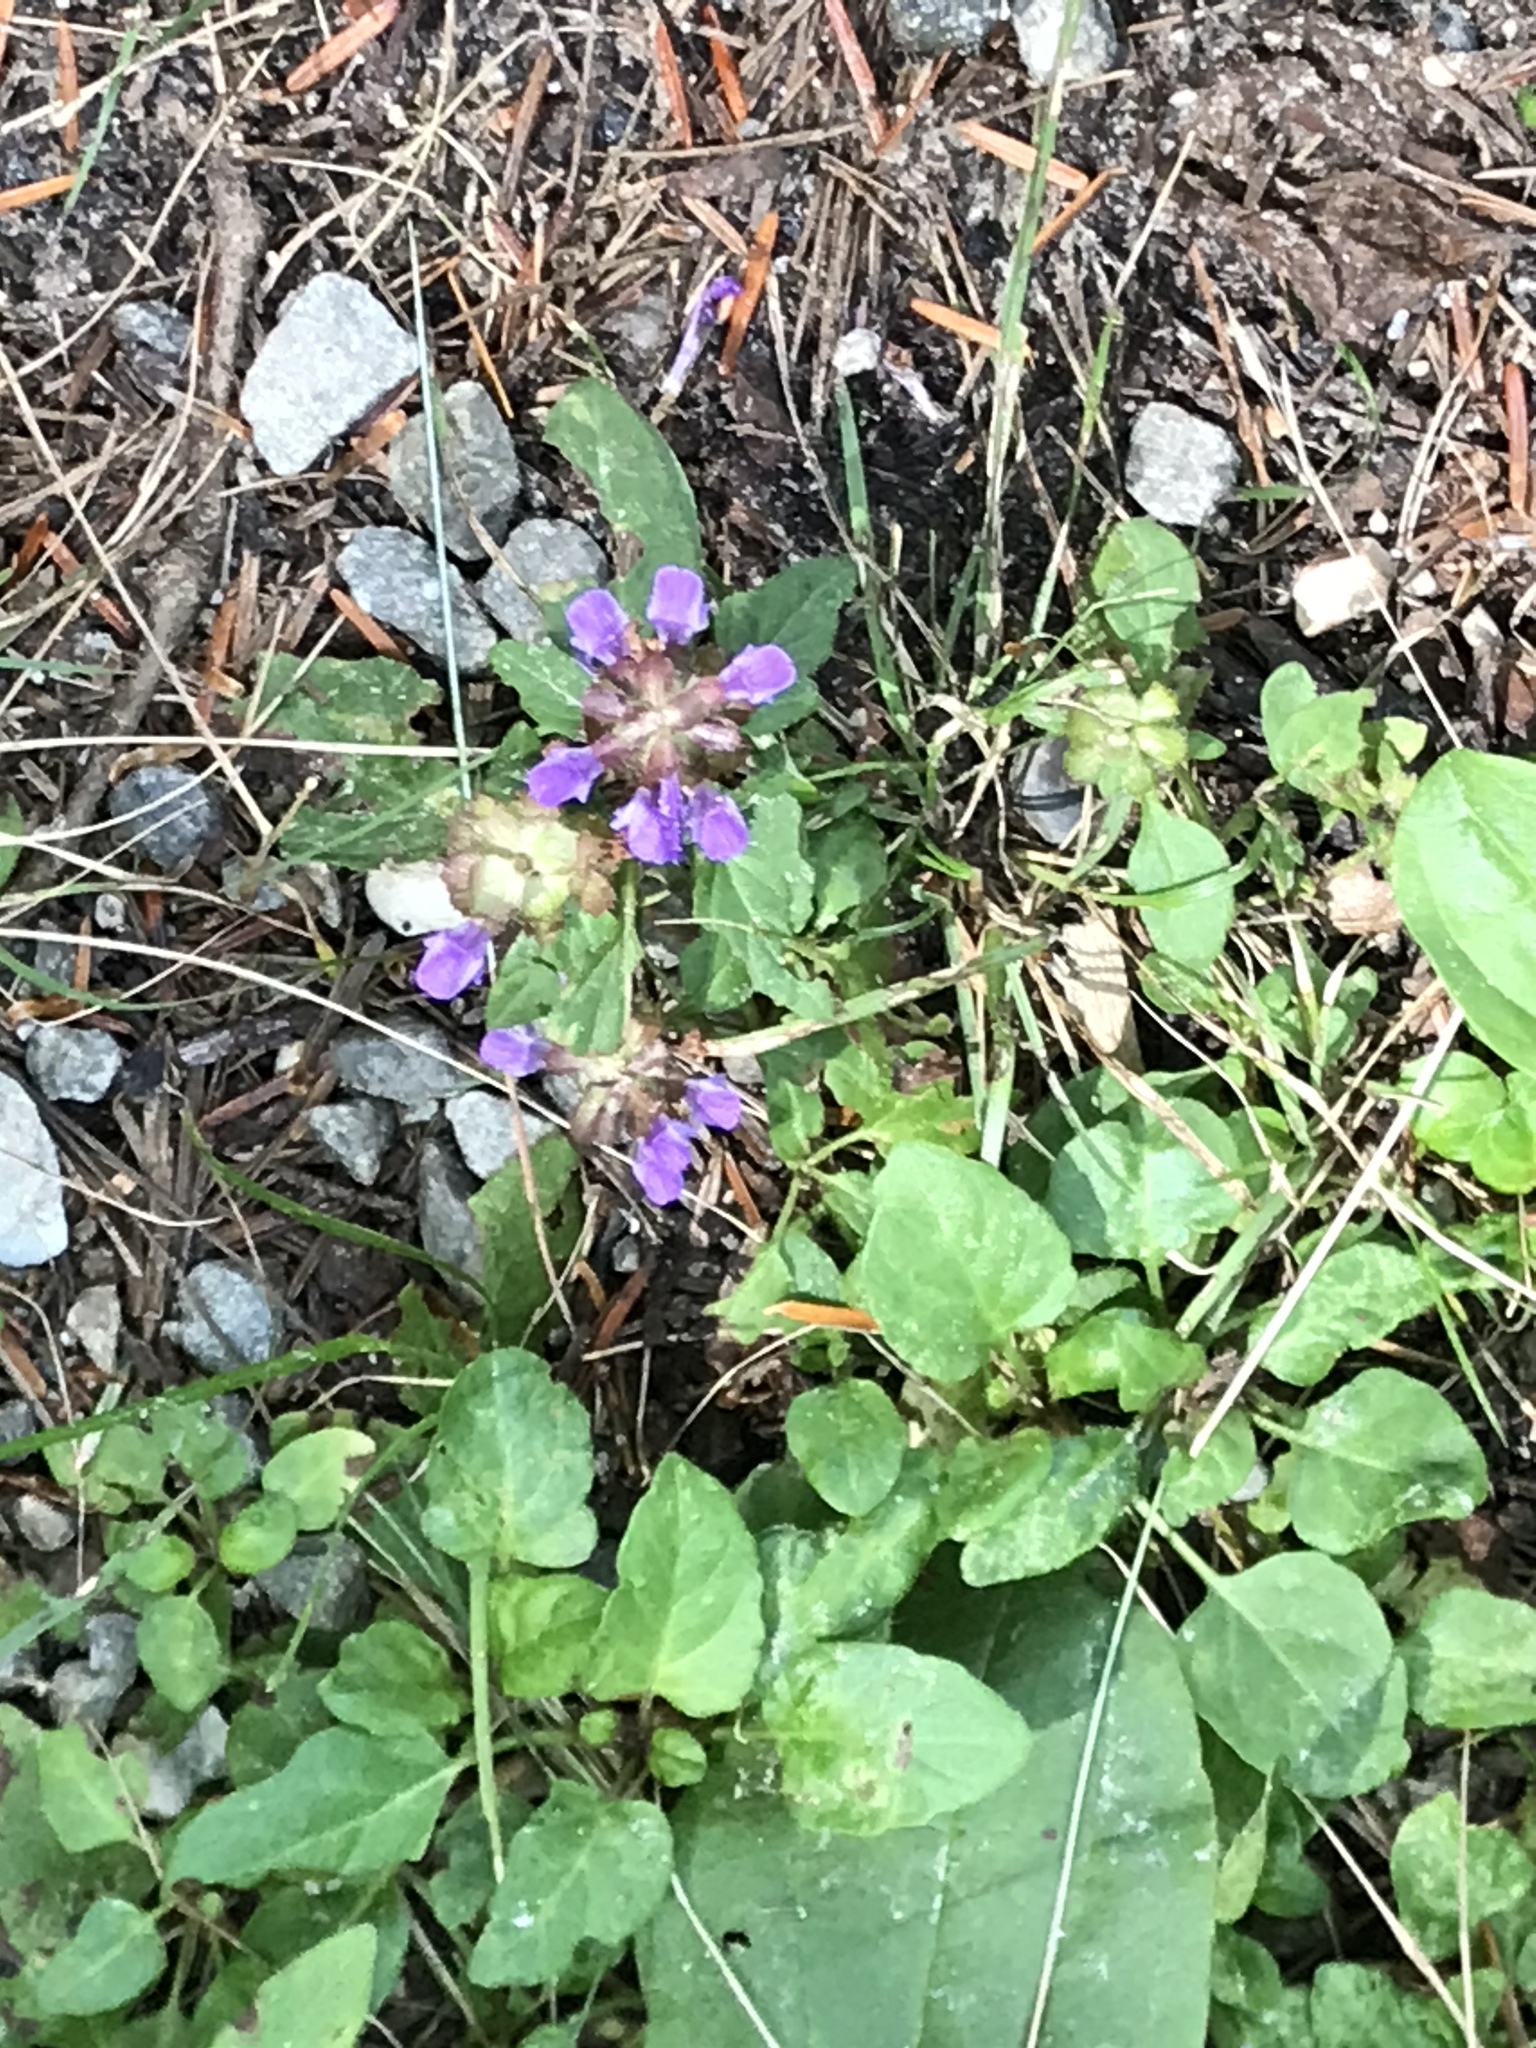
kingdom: Plantae
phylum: Tracheophyta
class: Magnoliopsida
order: Lamiales
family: Lamiaceae
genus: Prunella
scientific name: Prunella vulgaris
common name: Heal-all
